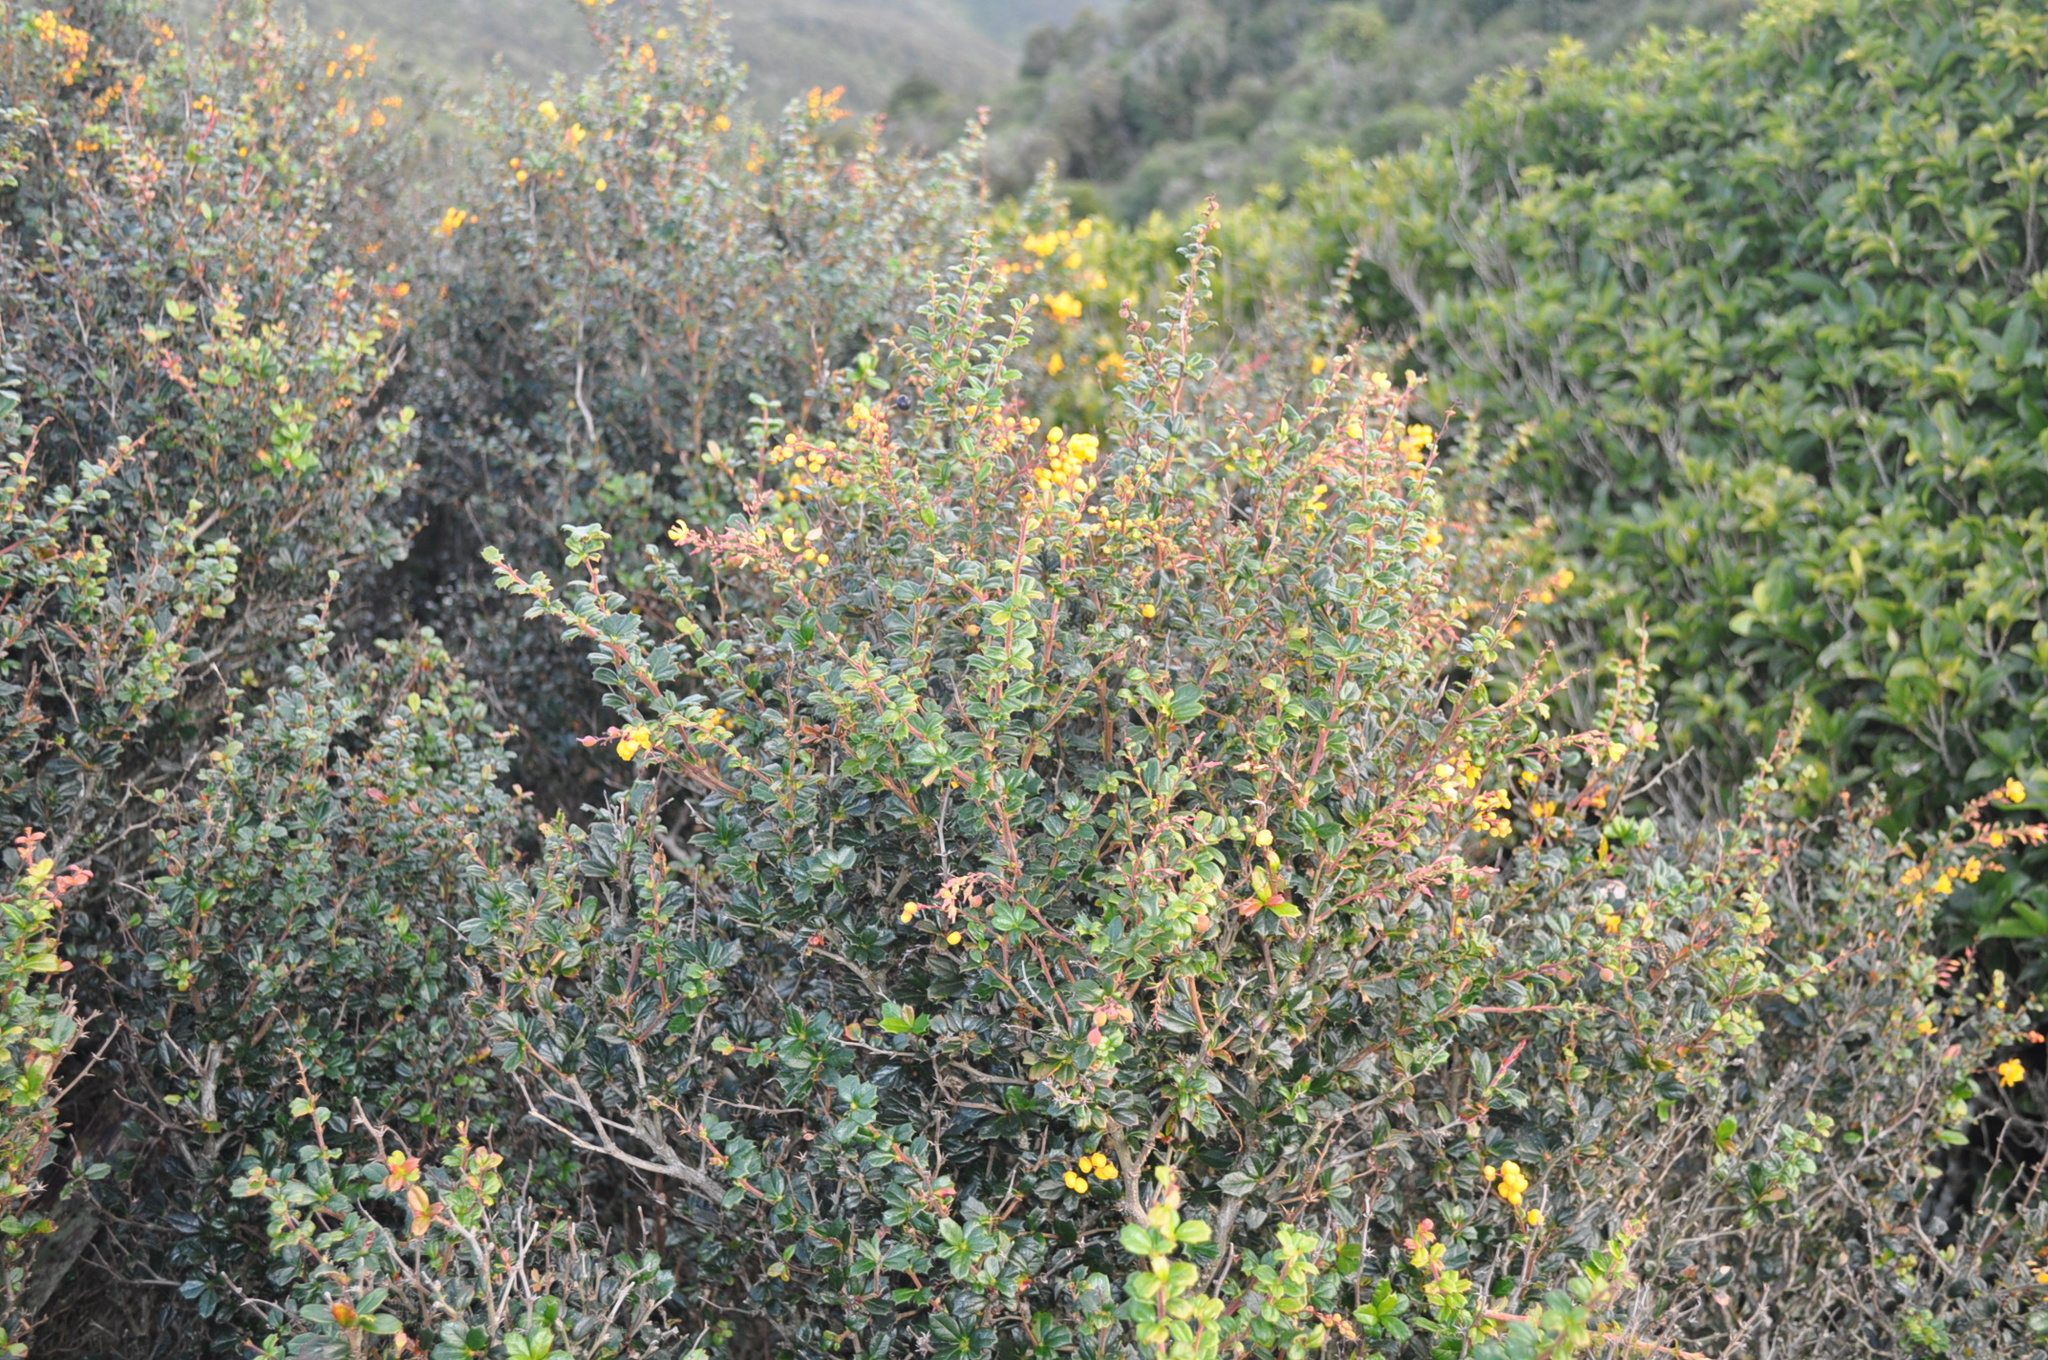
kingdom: Plantae
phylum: Tracheophyta
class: Magnoliopsida
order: Ranunculales
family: Berberidaceae
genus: Berberis
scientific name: Berberis darwinii
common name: Darwin's barberry
